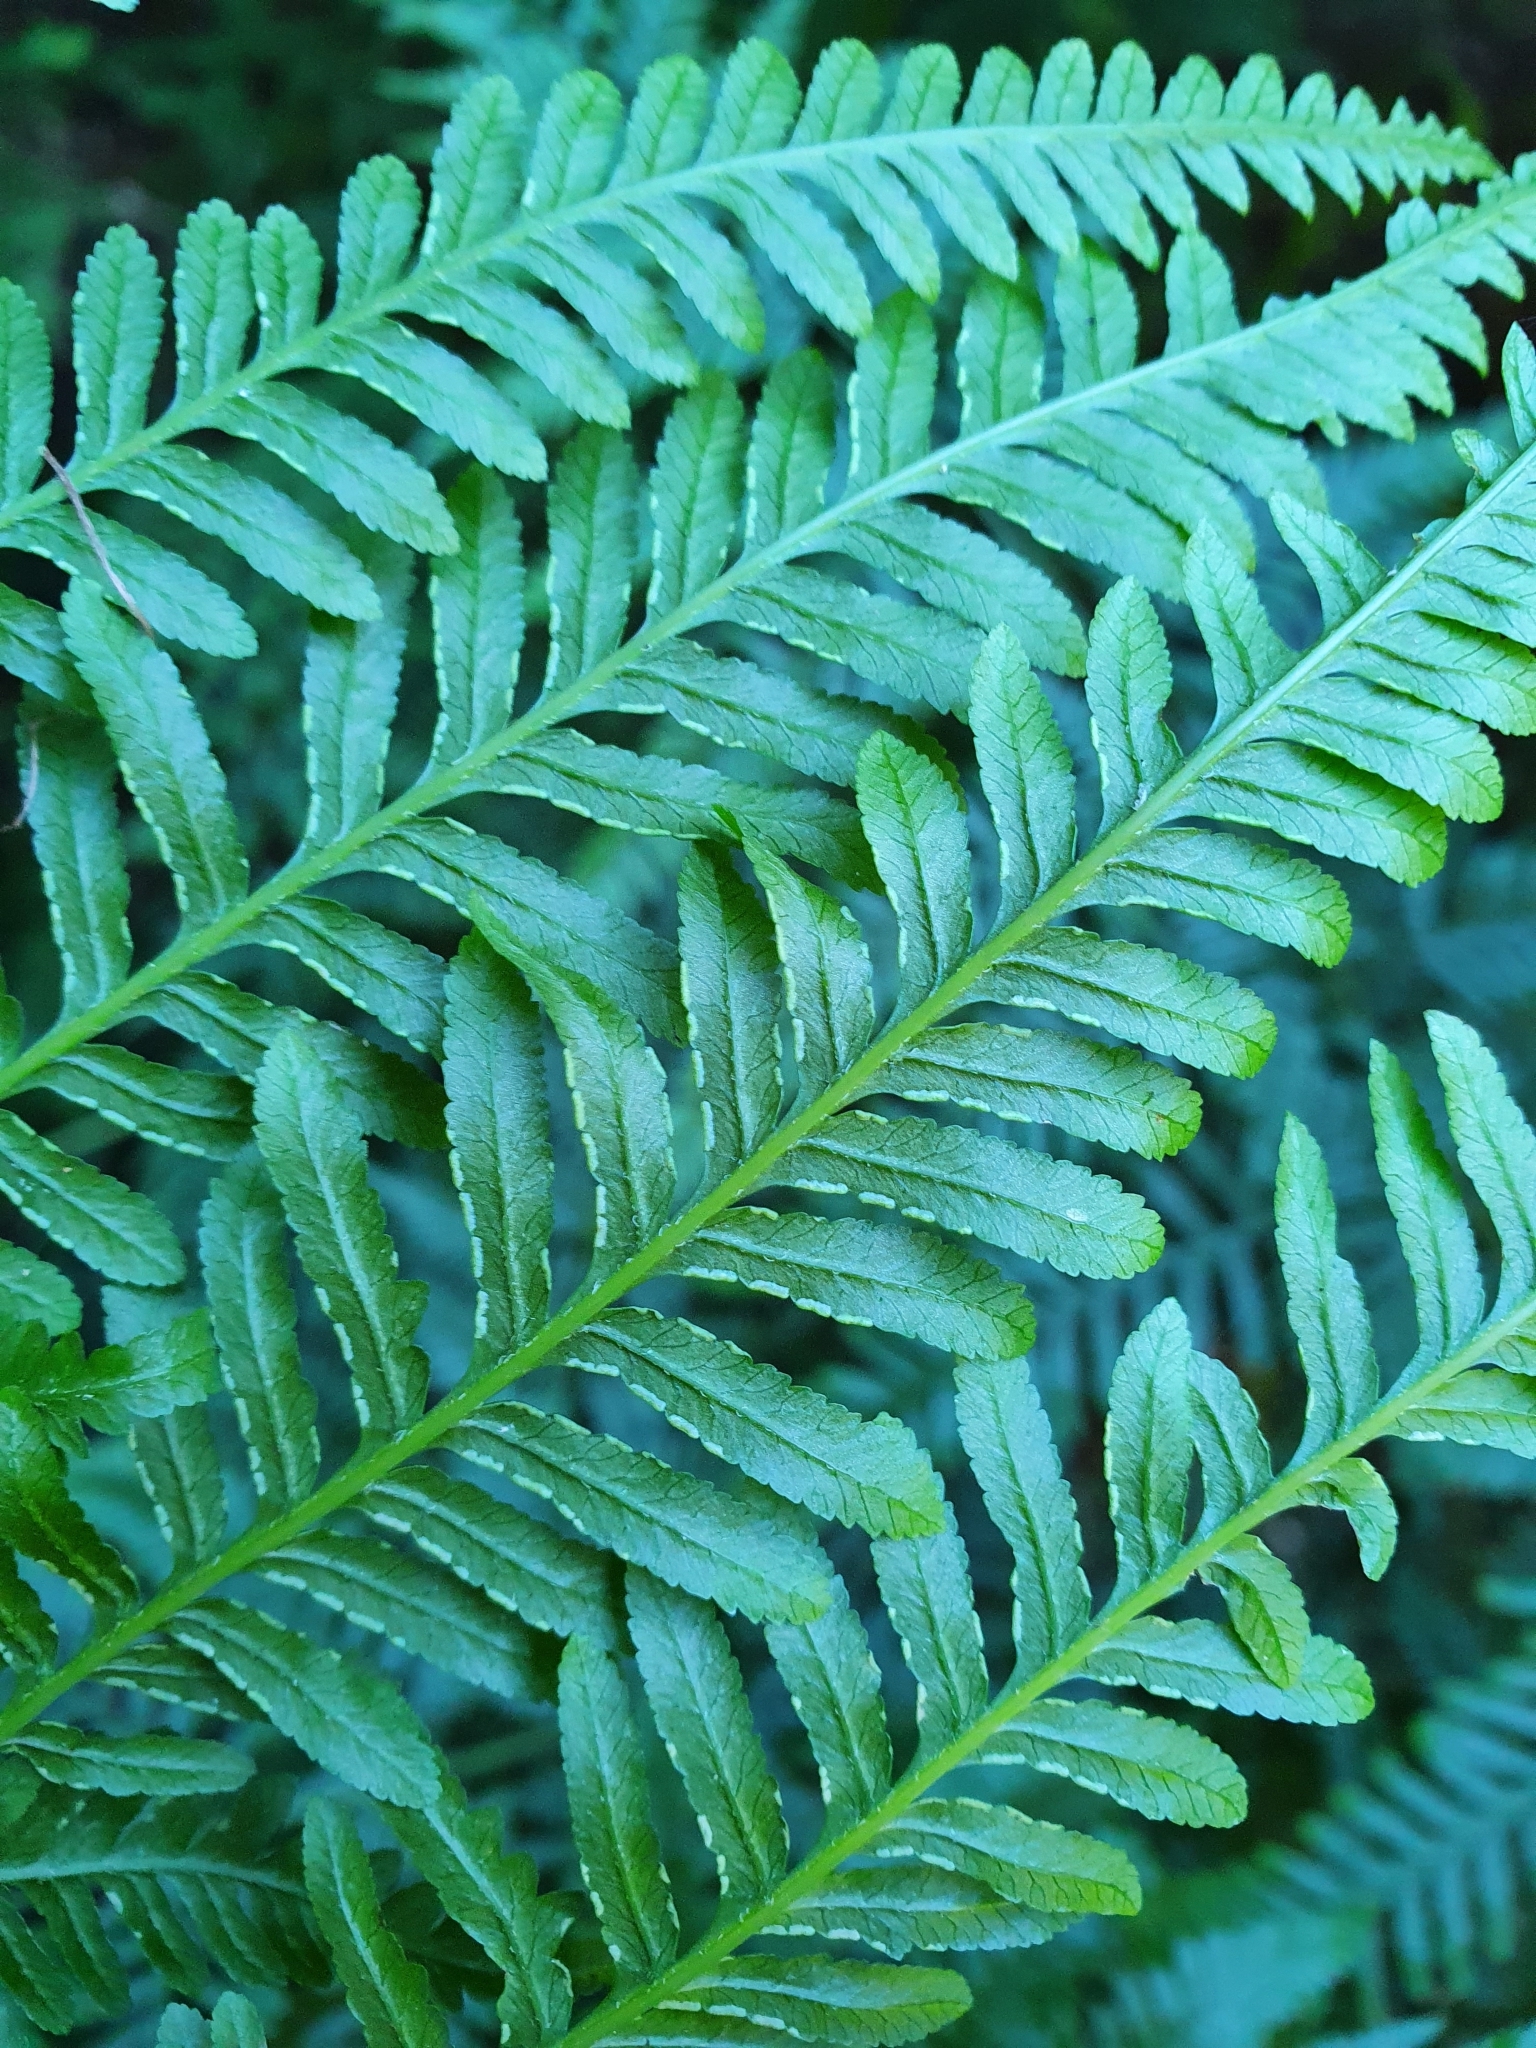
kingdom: Plantae
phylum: Tracheophyta
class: Polypodiopsida
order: Polypodiales
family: Pteridaceae
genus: Pteris
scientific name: Pteris tremula
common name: Australian brake
